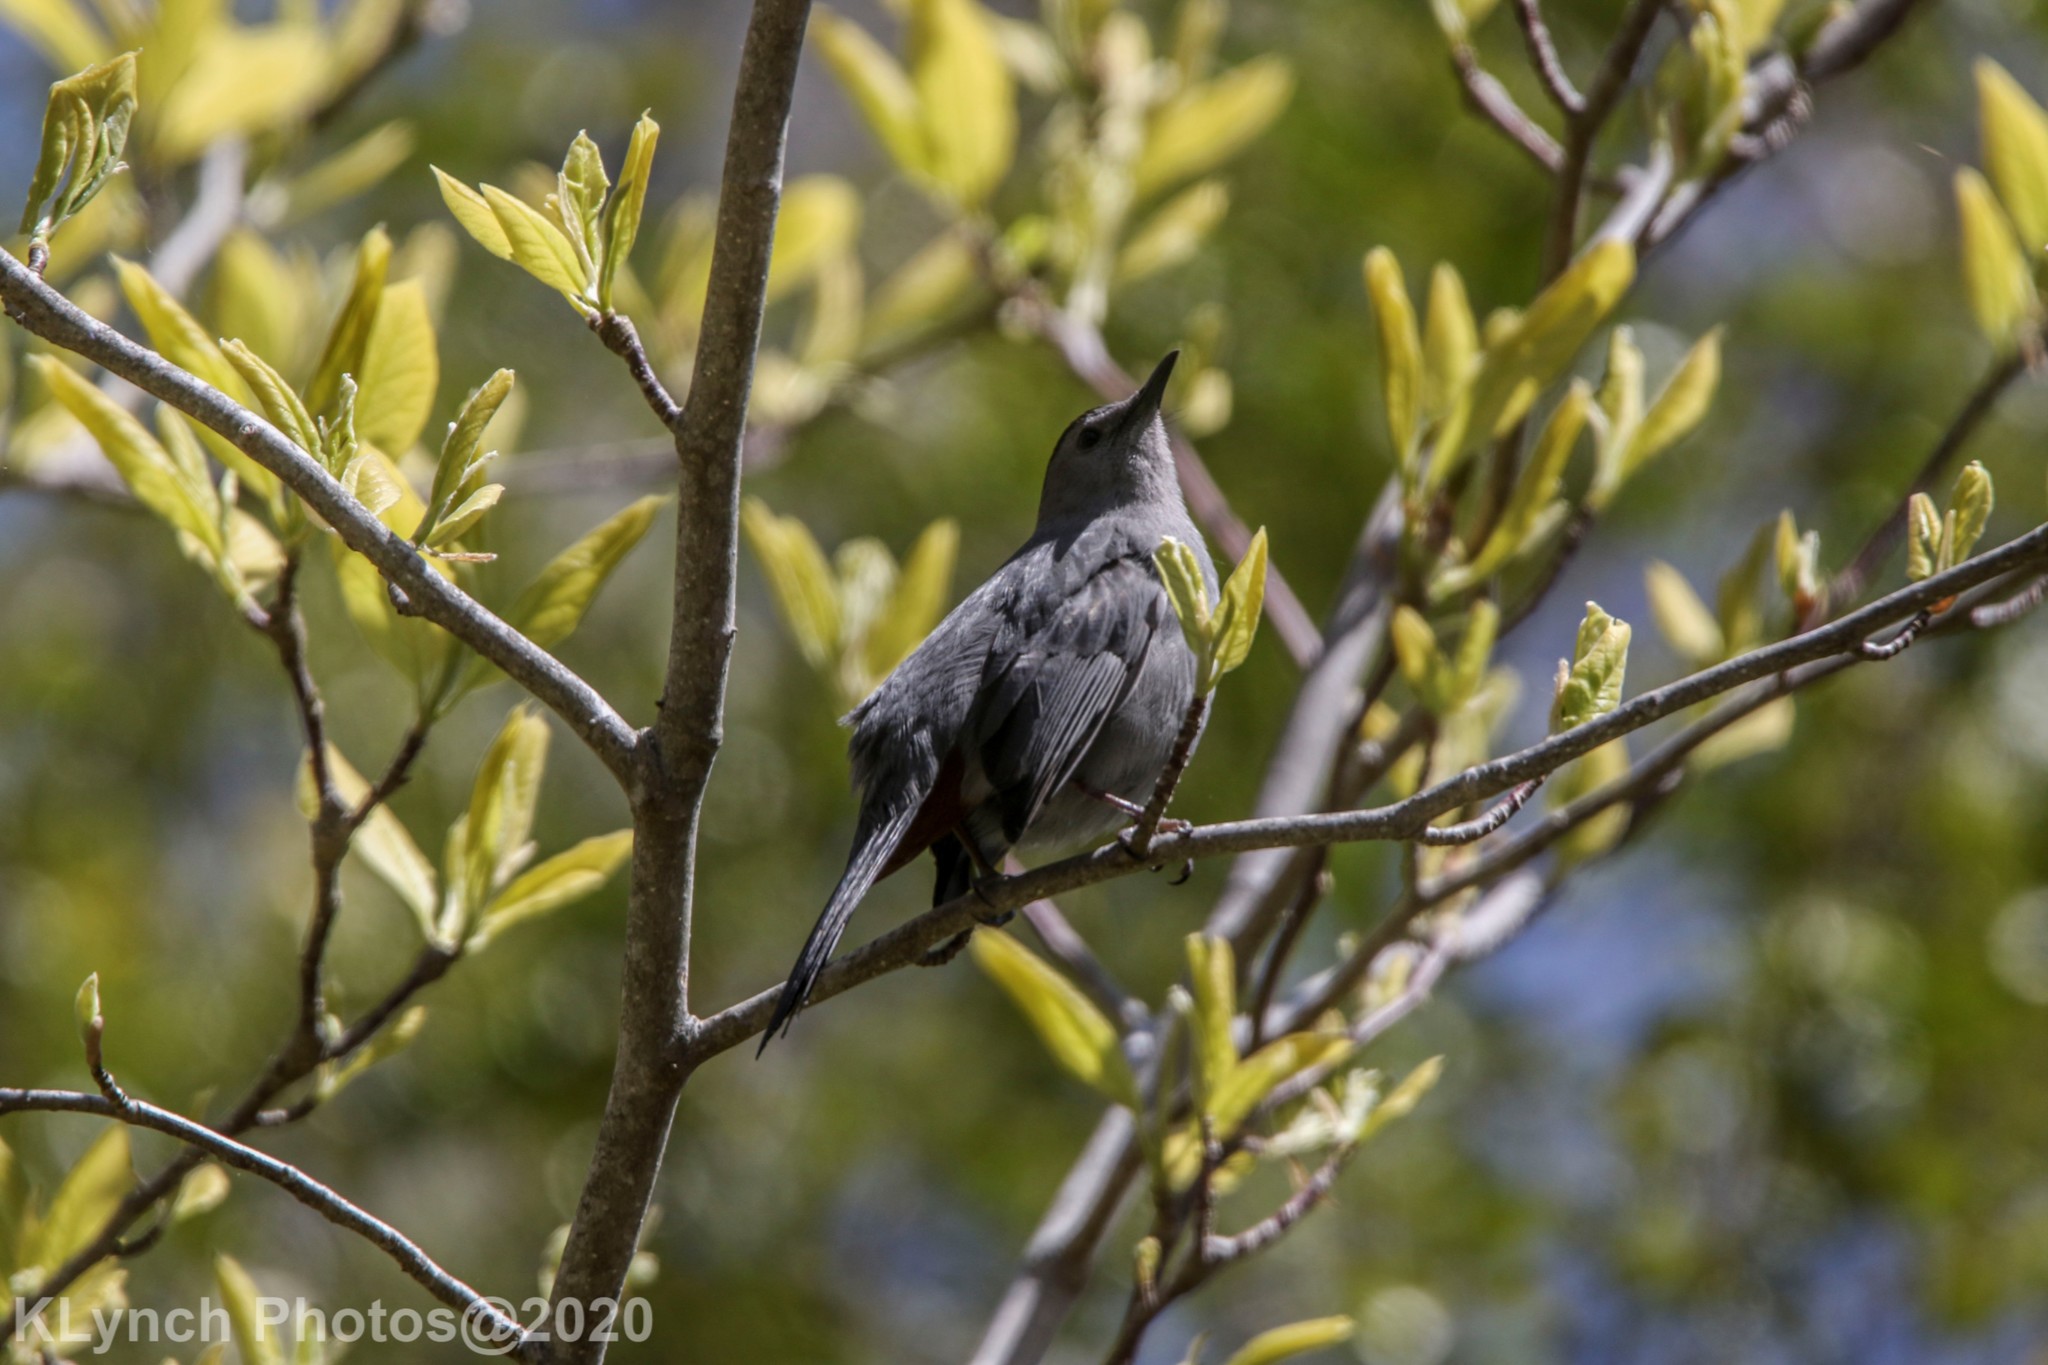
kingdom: Animalia
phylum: Chordata
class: Aves
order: Passeriformes
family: Mimidae
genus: Dumetella
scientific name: Dumetella carolinensis
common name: Gray catbird
